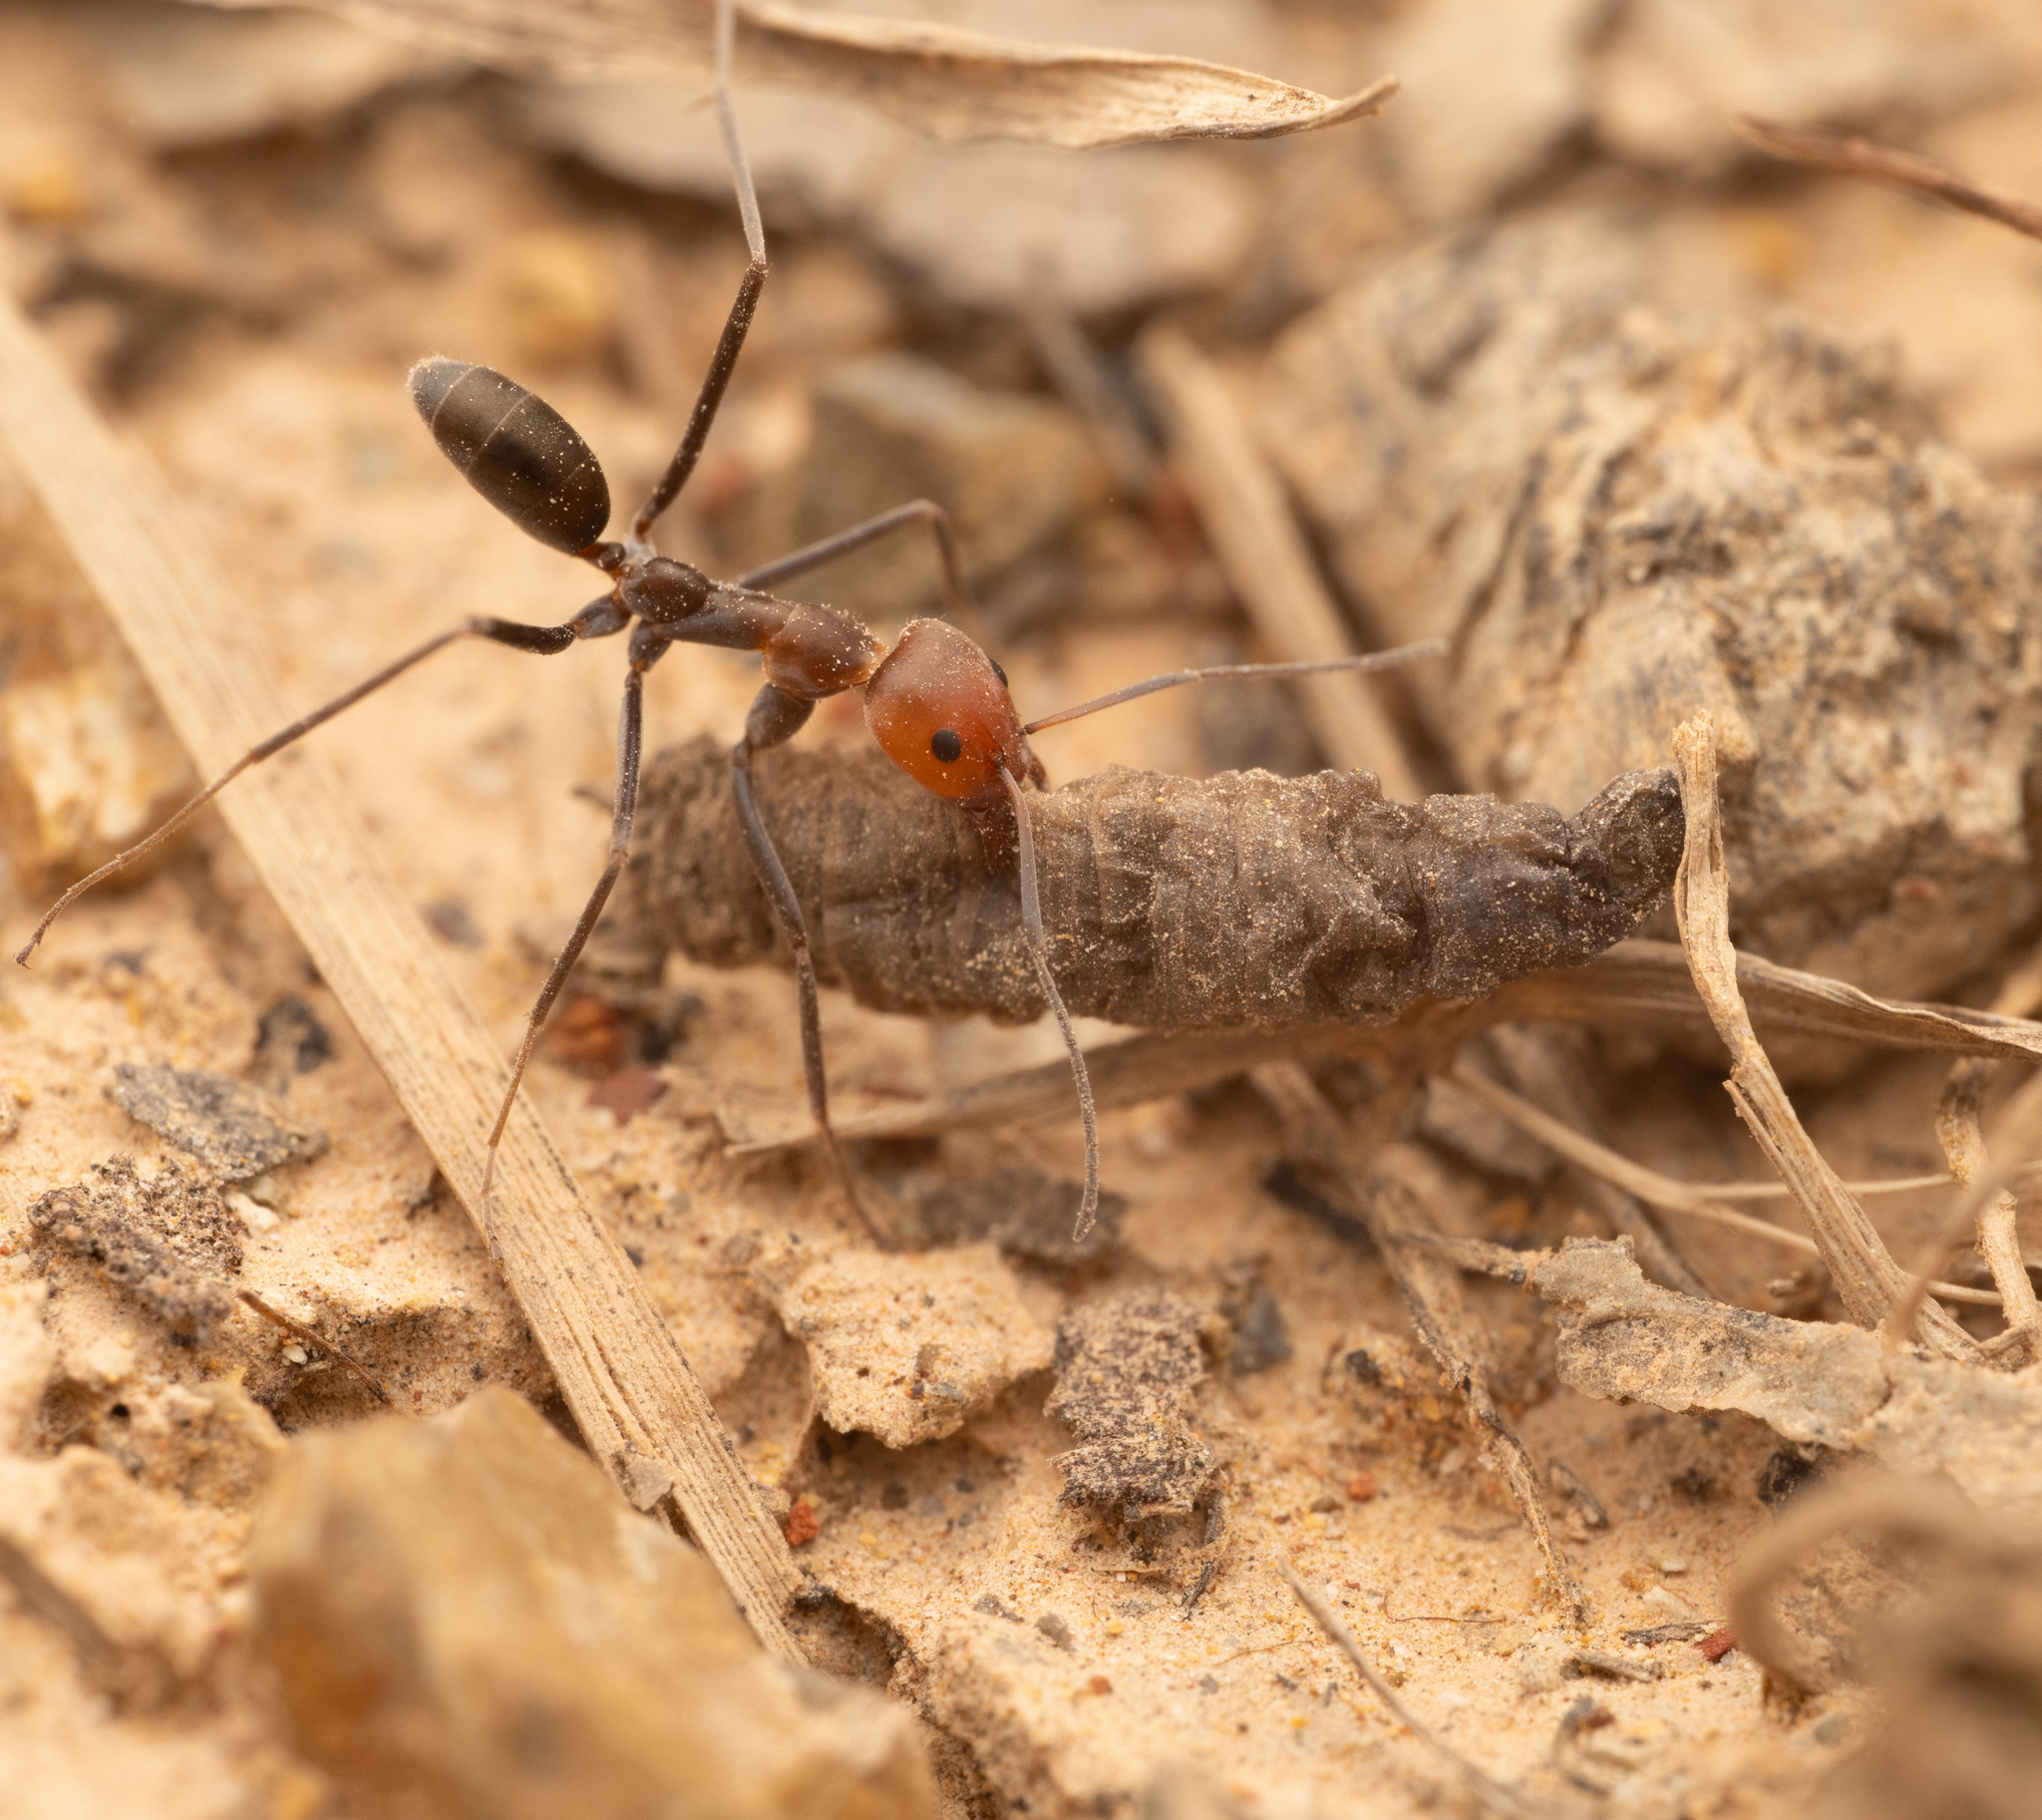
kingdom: Animalia
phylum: Arthropoda
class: Insecta
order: Hymenoptera
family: Formicidae
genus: Iridomyrmex
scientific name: Iridomyrmex
